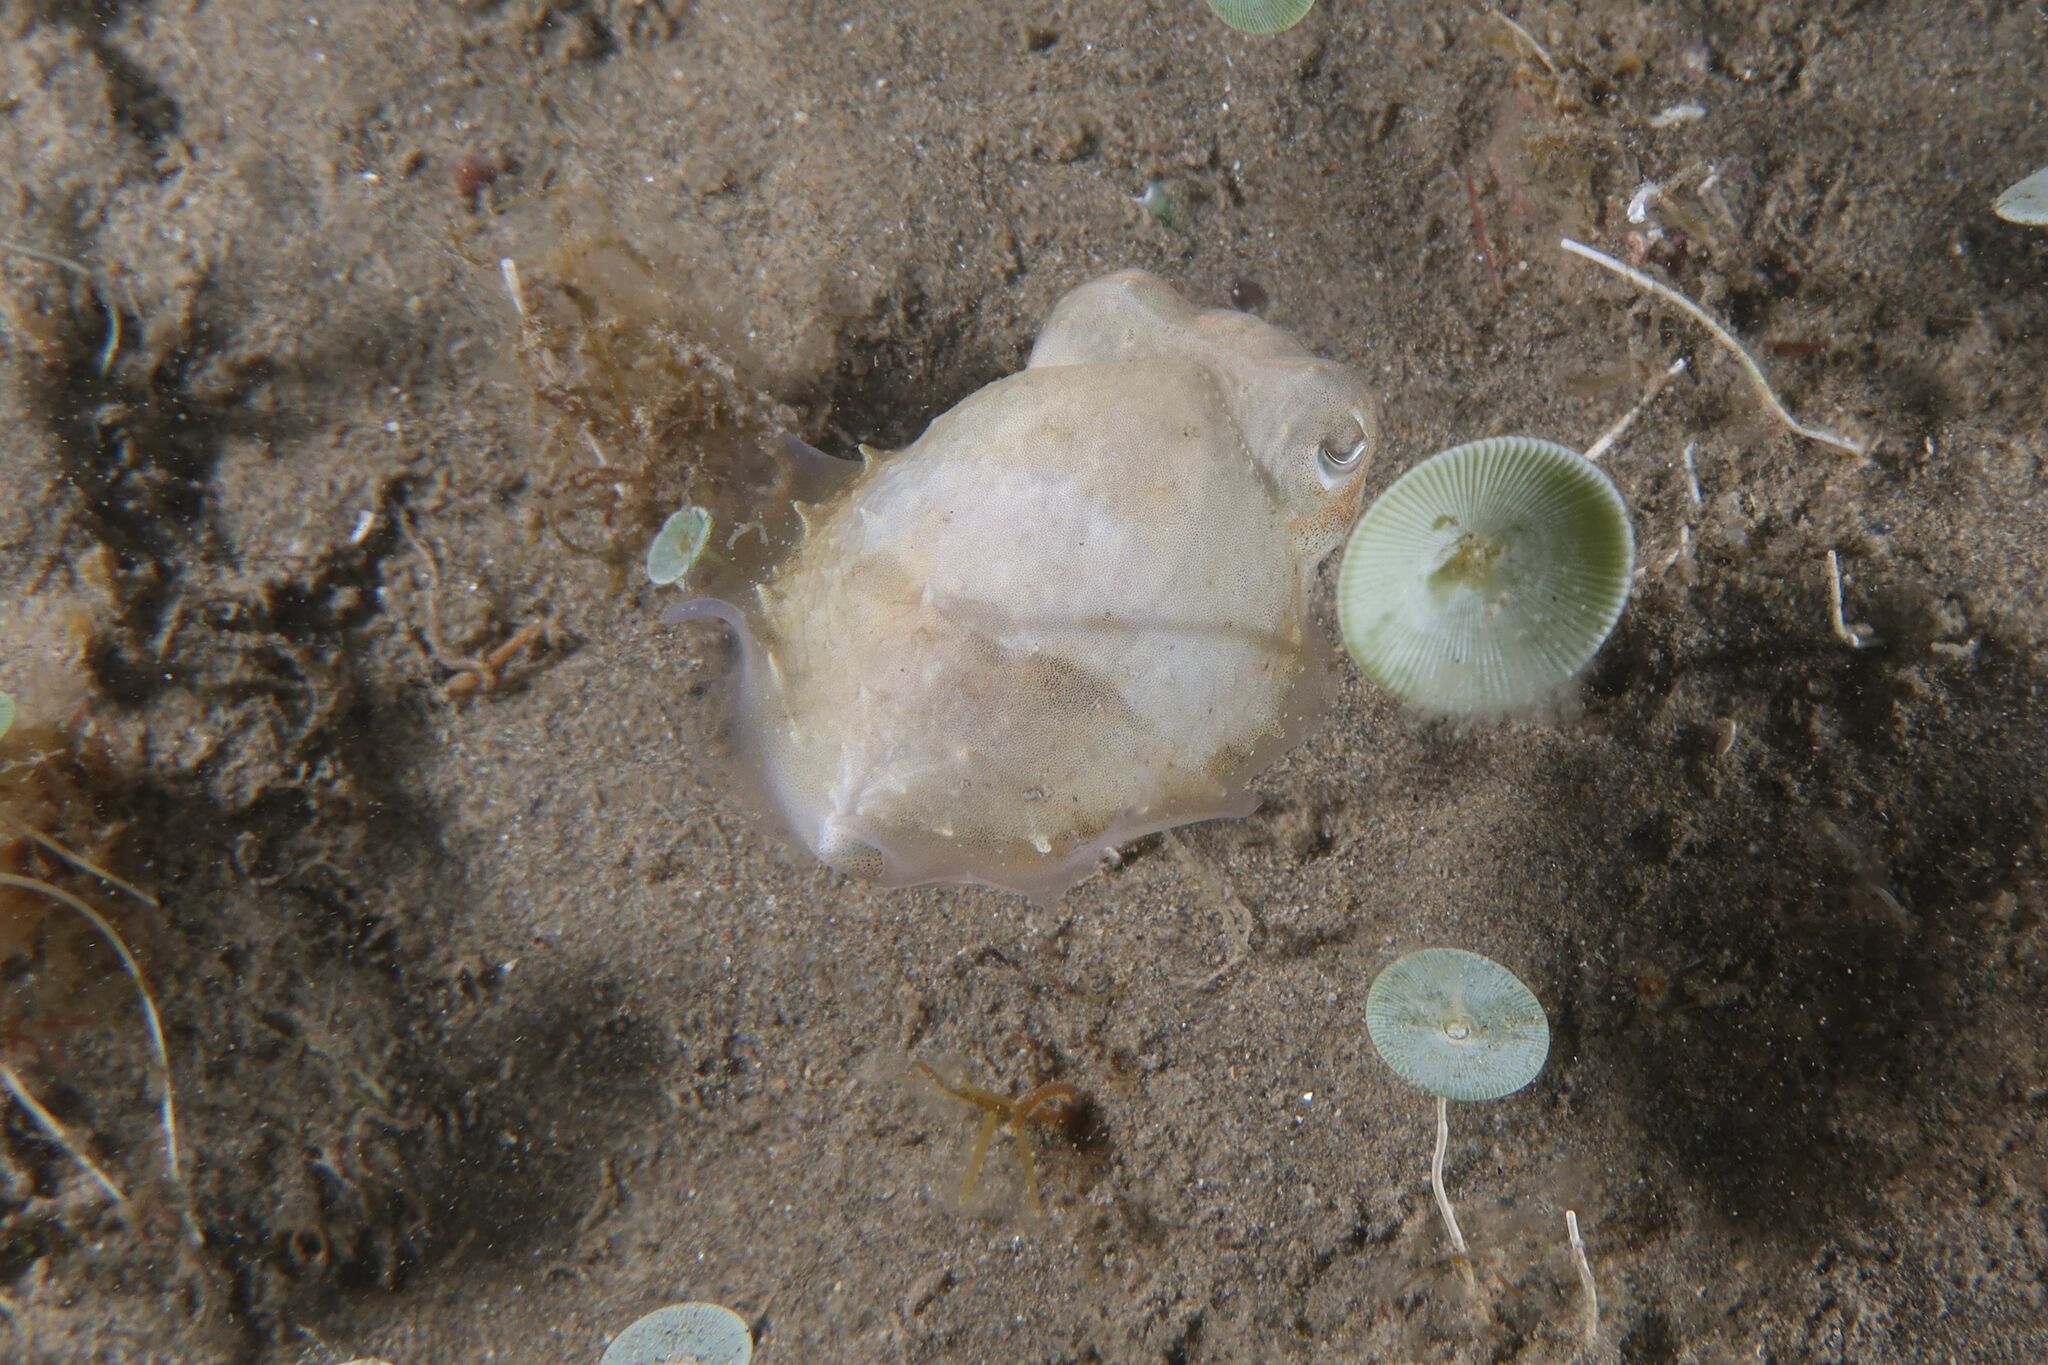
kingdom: Animalia
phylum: Mollusca
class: Cephalopoda
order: Sepiida
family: Sepiidae
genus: Sepia
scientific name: Sepia officinalis
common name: Common cuttlefish
